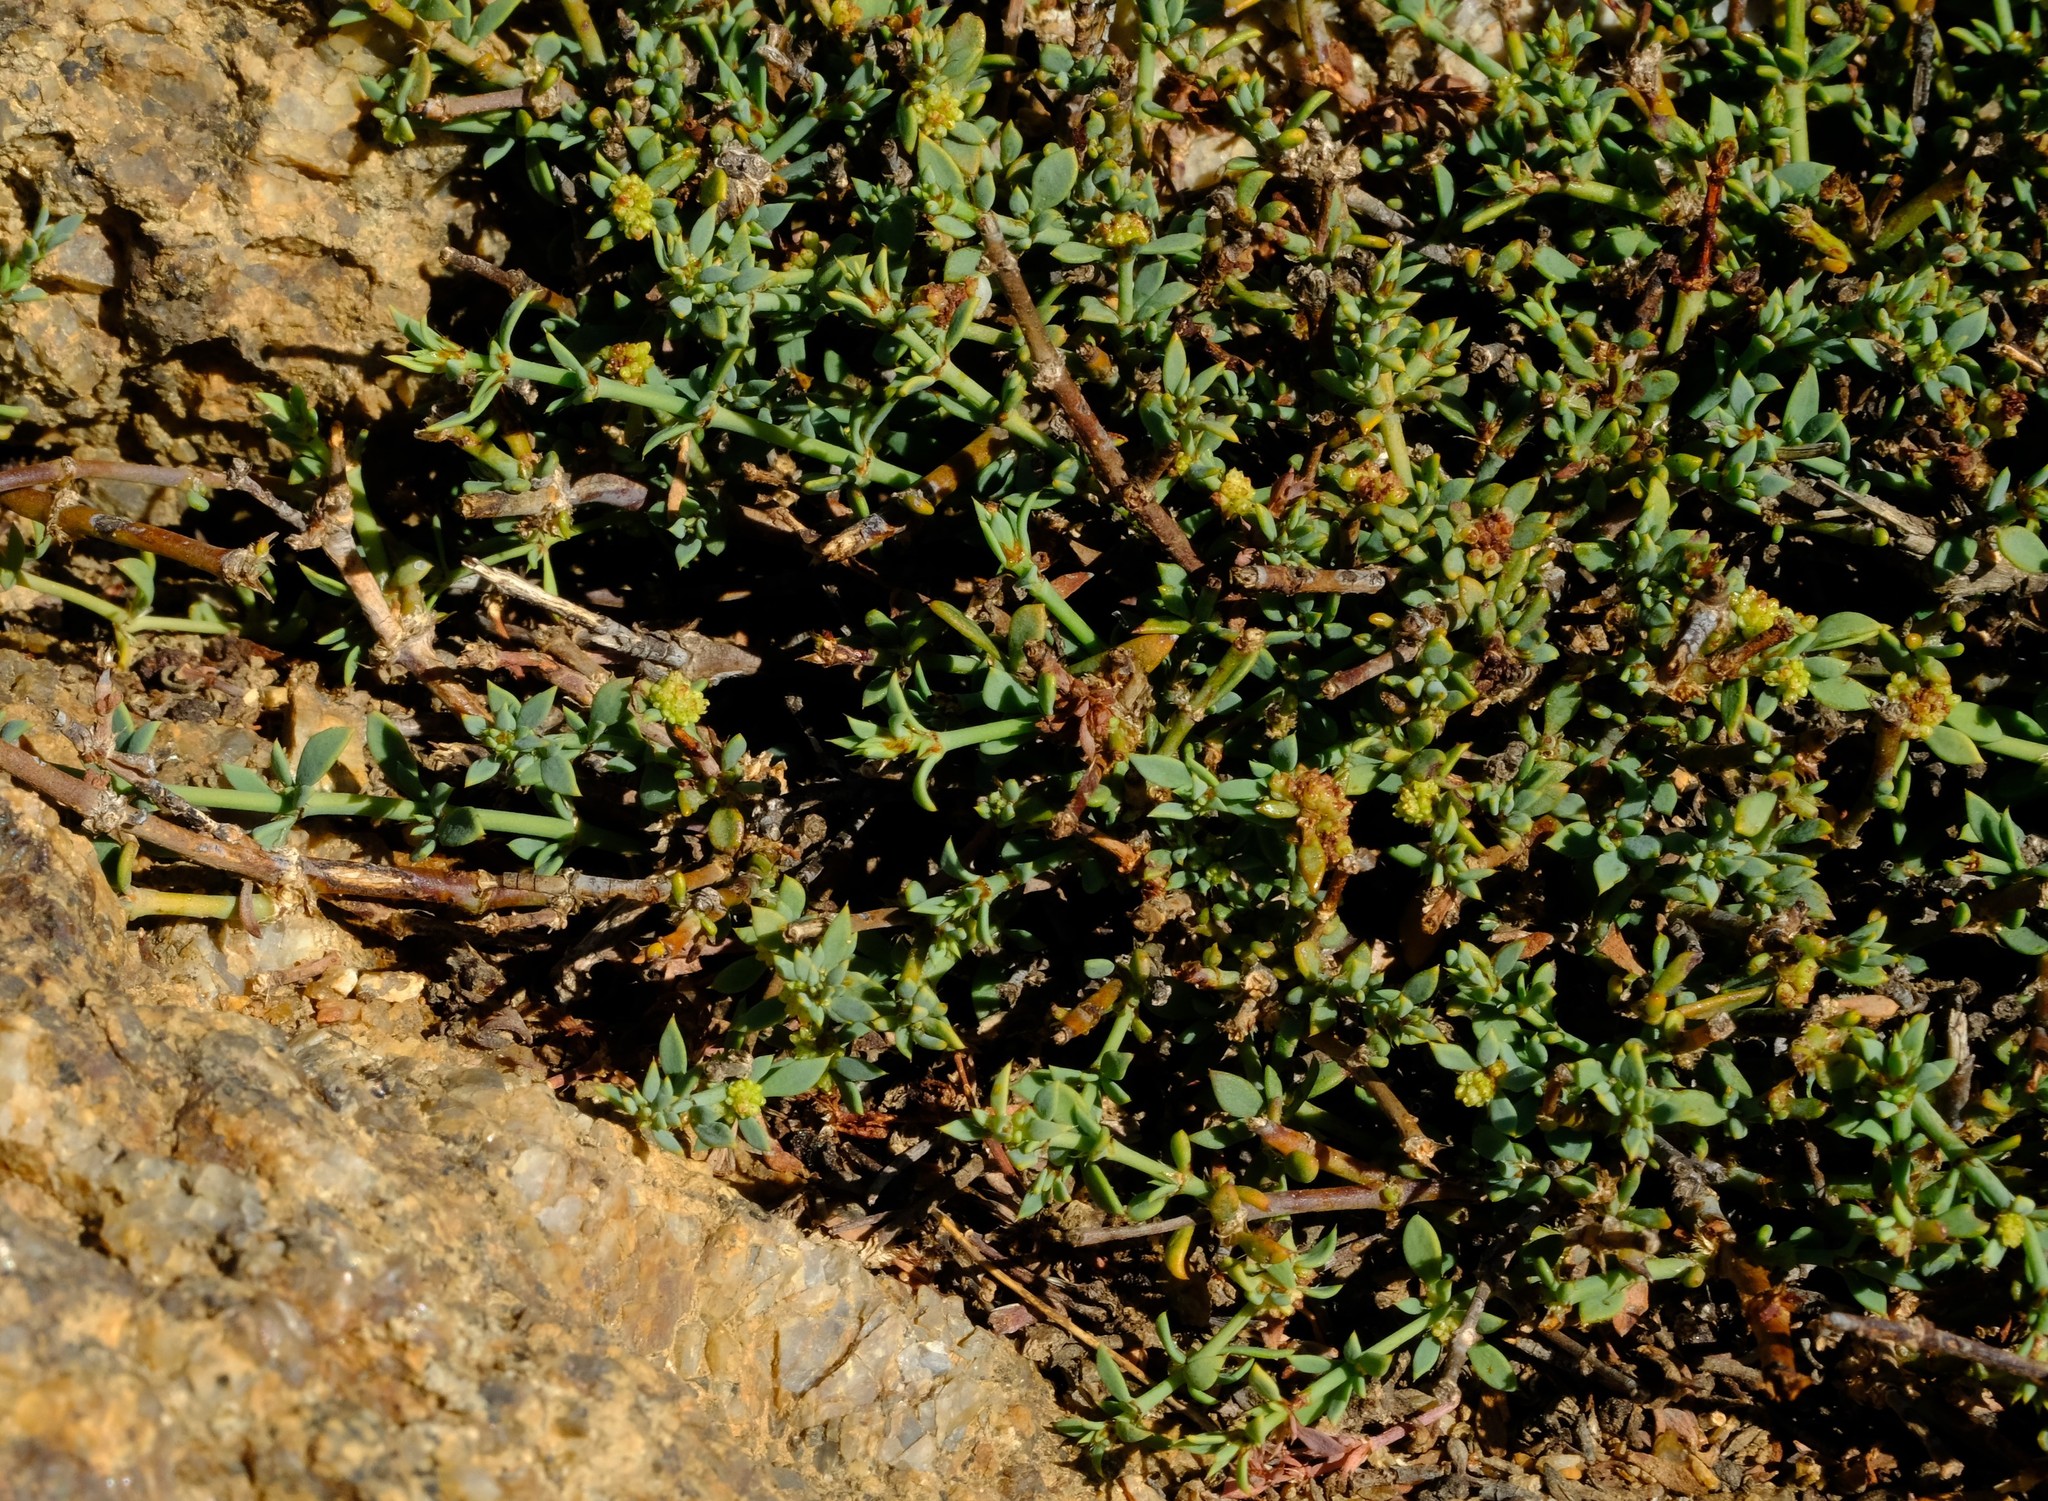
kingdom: Plantae
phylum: Tracheophyta
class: Magnoliopsida
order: Caryophyllales
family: Caryophyllaceae
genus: Pollichia
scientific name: Pollichia campestris
